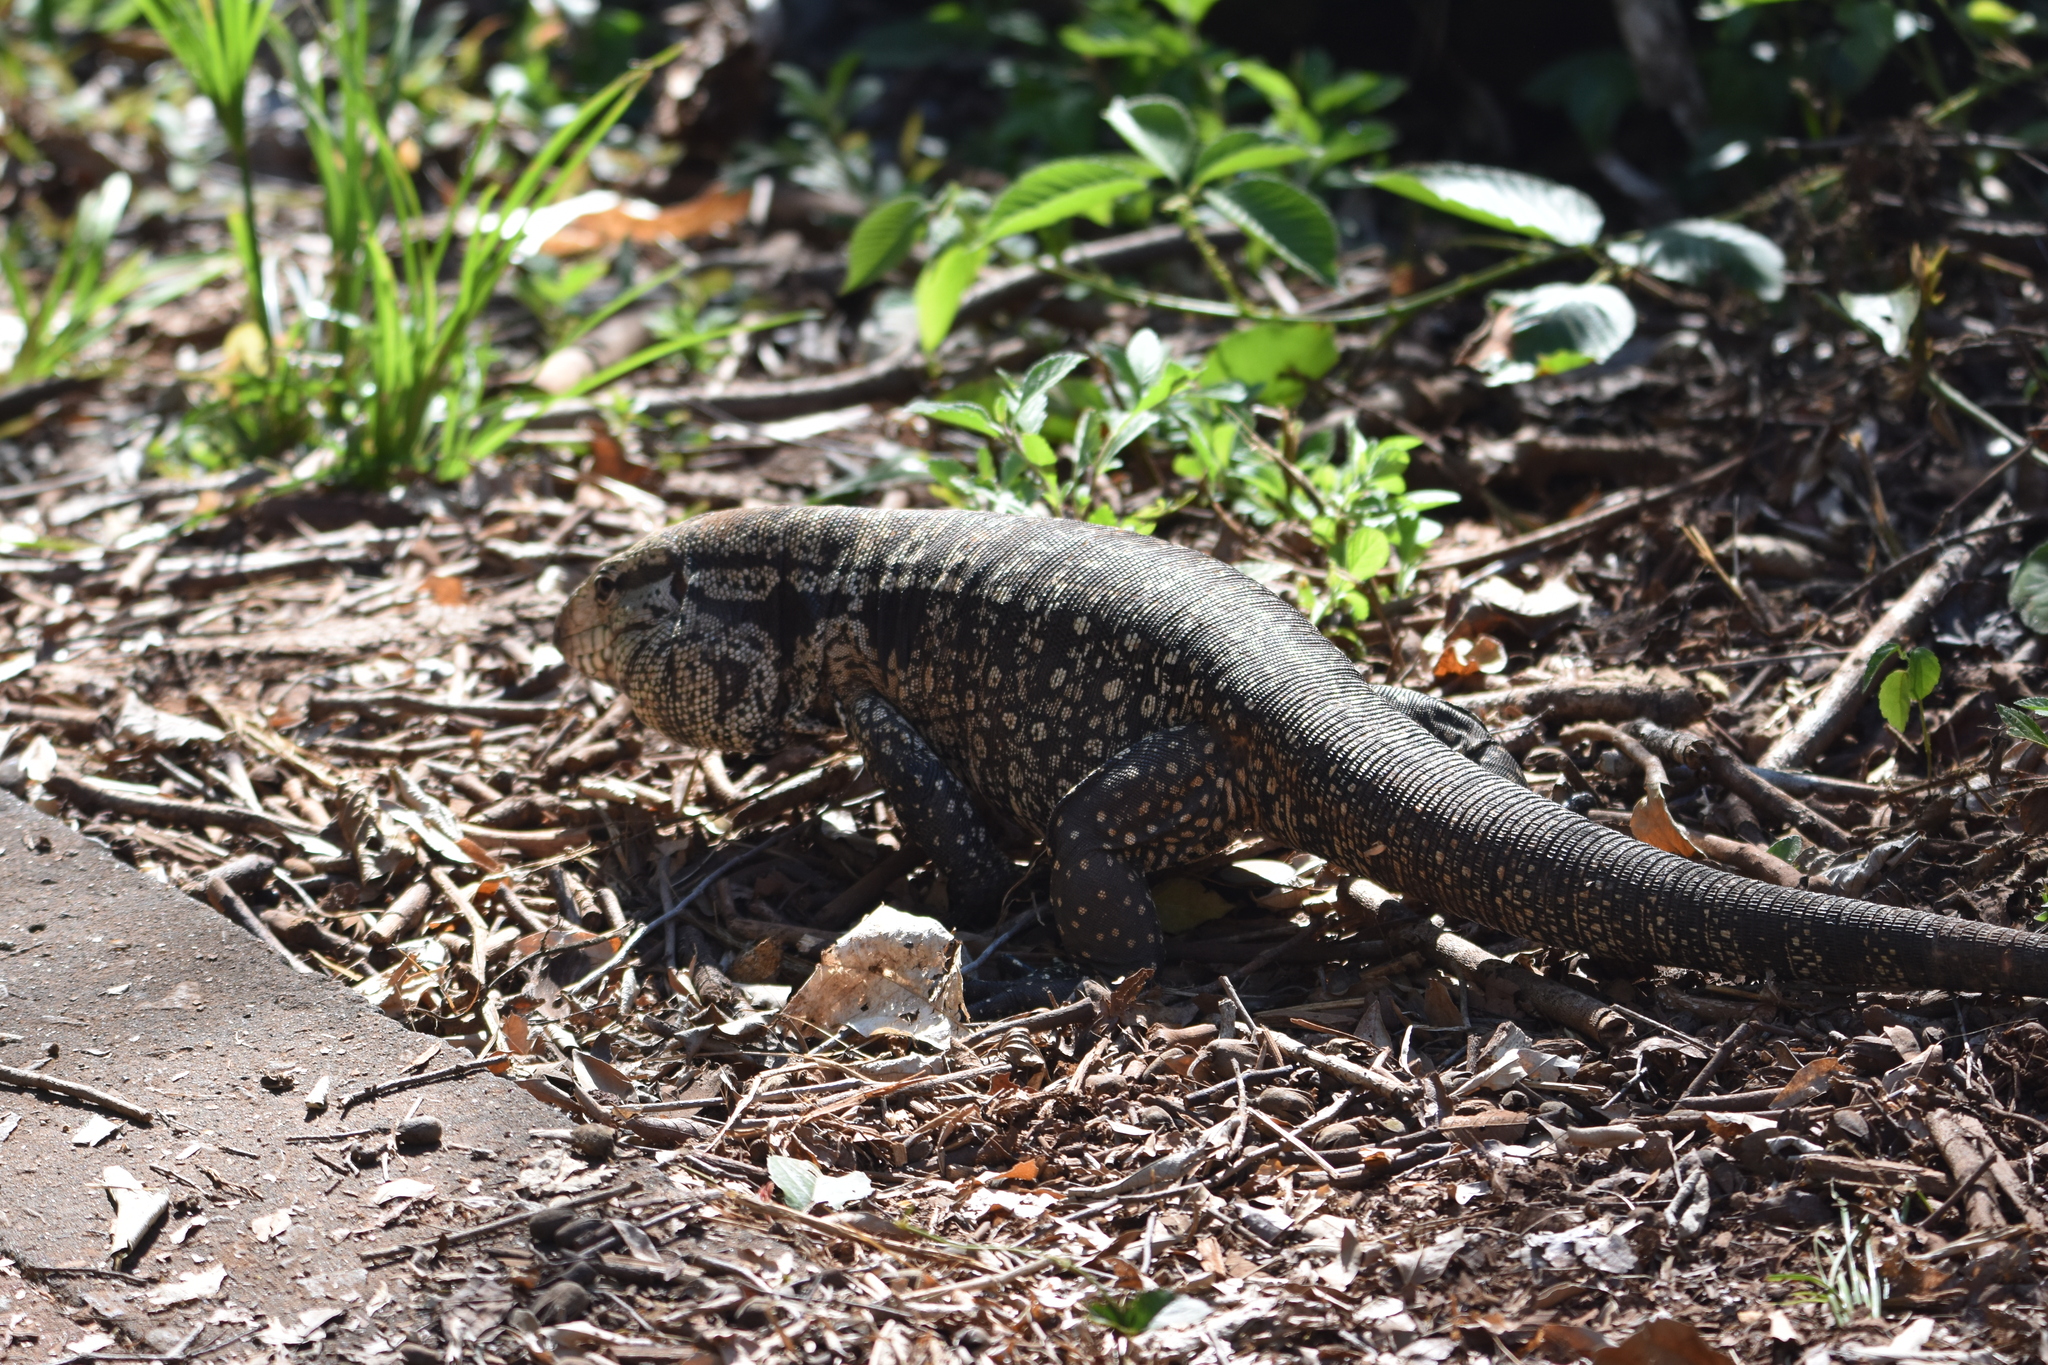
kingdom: Animalia
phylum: Chordata
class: Squamata
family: Teiidae
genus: Salvator
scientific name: Salvator merianae
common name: Argentine black and white tegu
